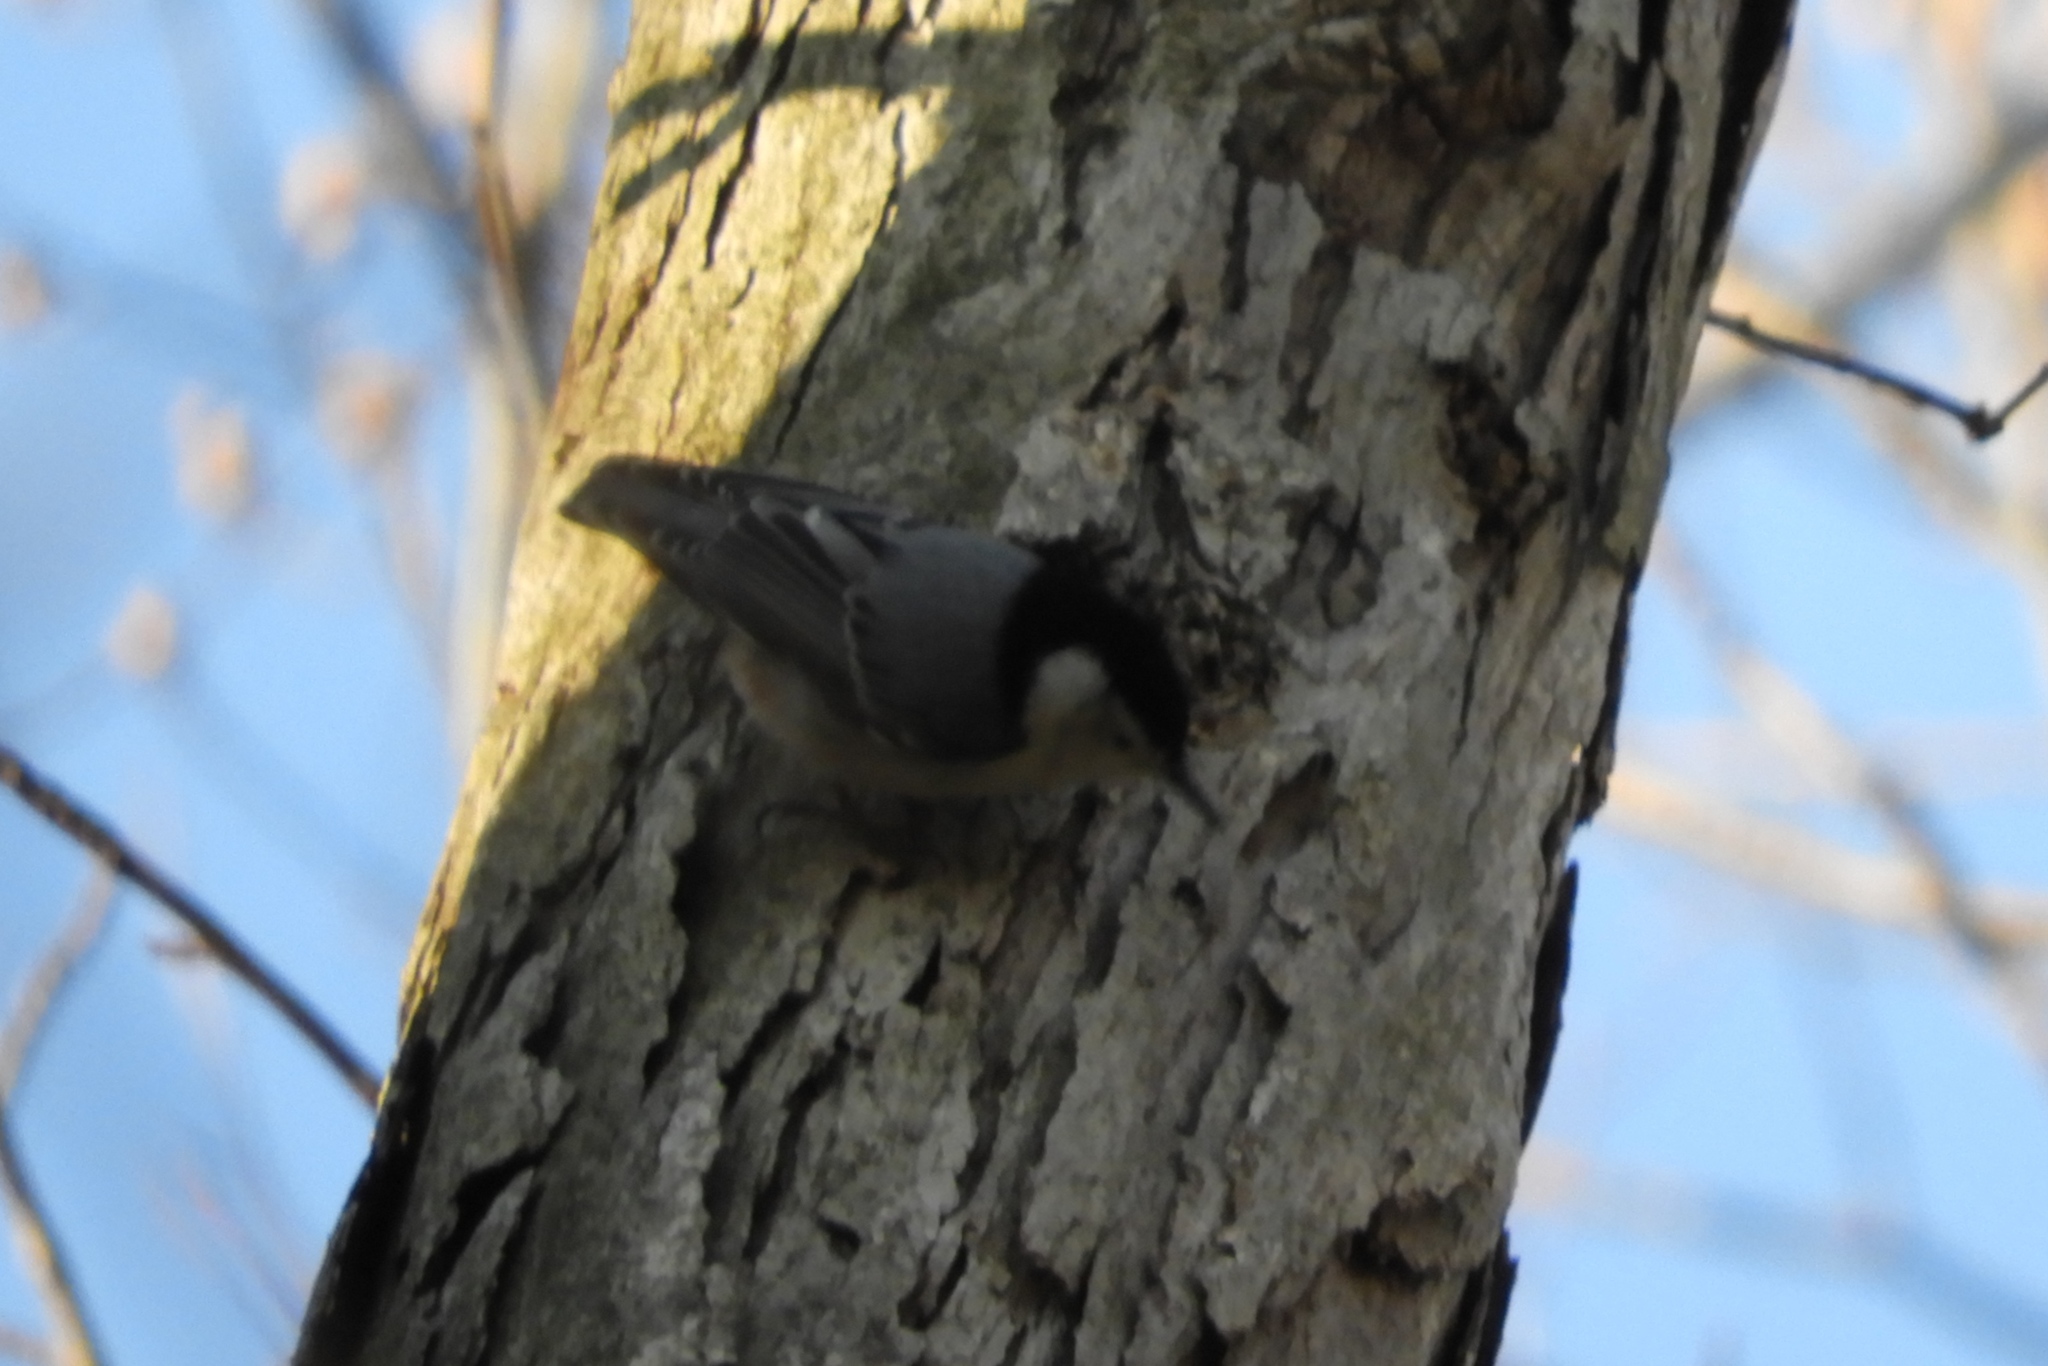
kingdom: Animalia
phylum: Chordata
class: Aves
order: Passeriformes
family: Sittidae
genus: Sitta
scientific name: Sitta carolinensis
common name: White-breasted nuthatch
